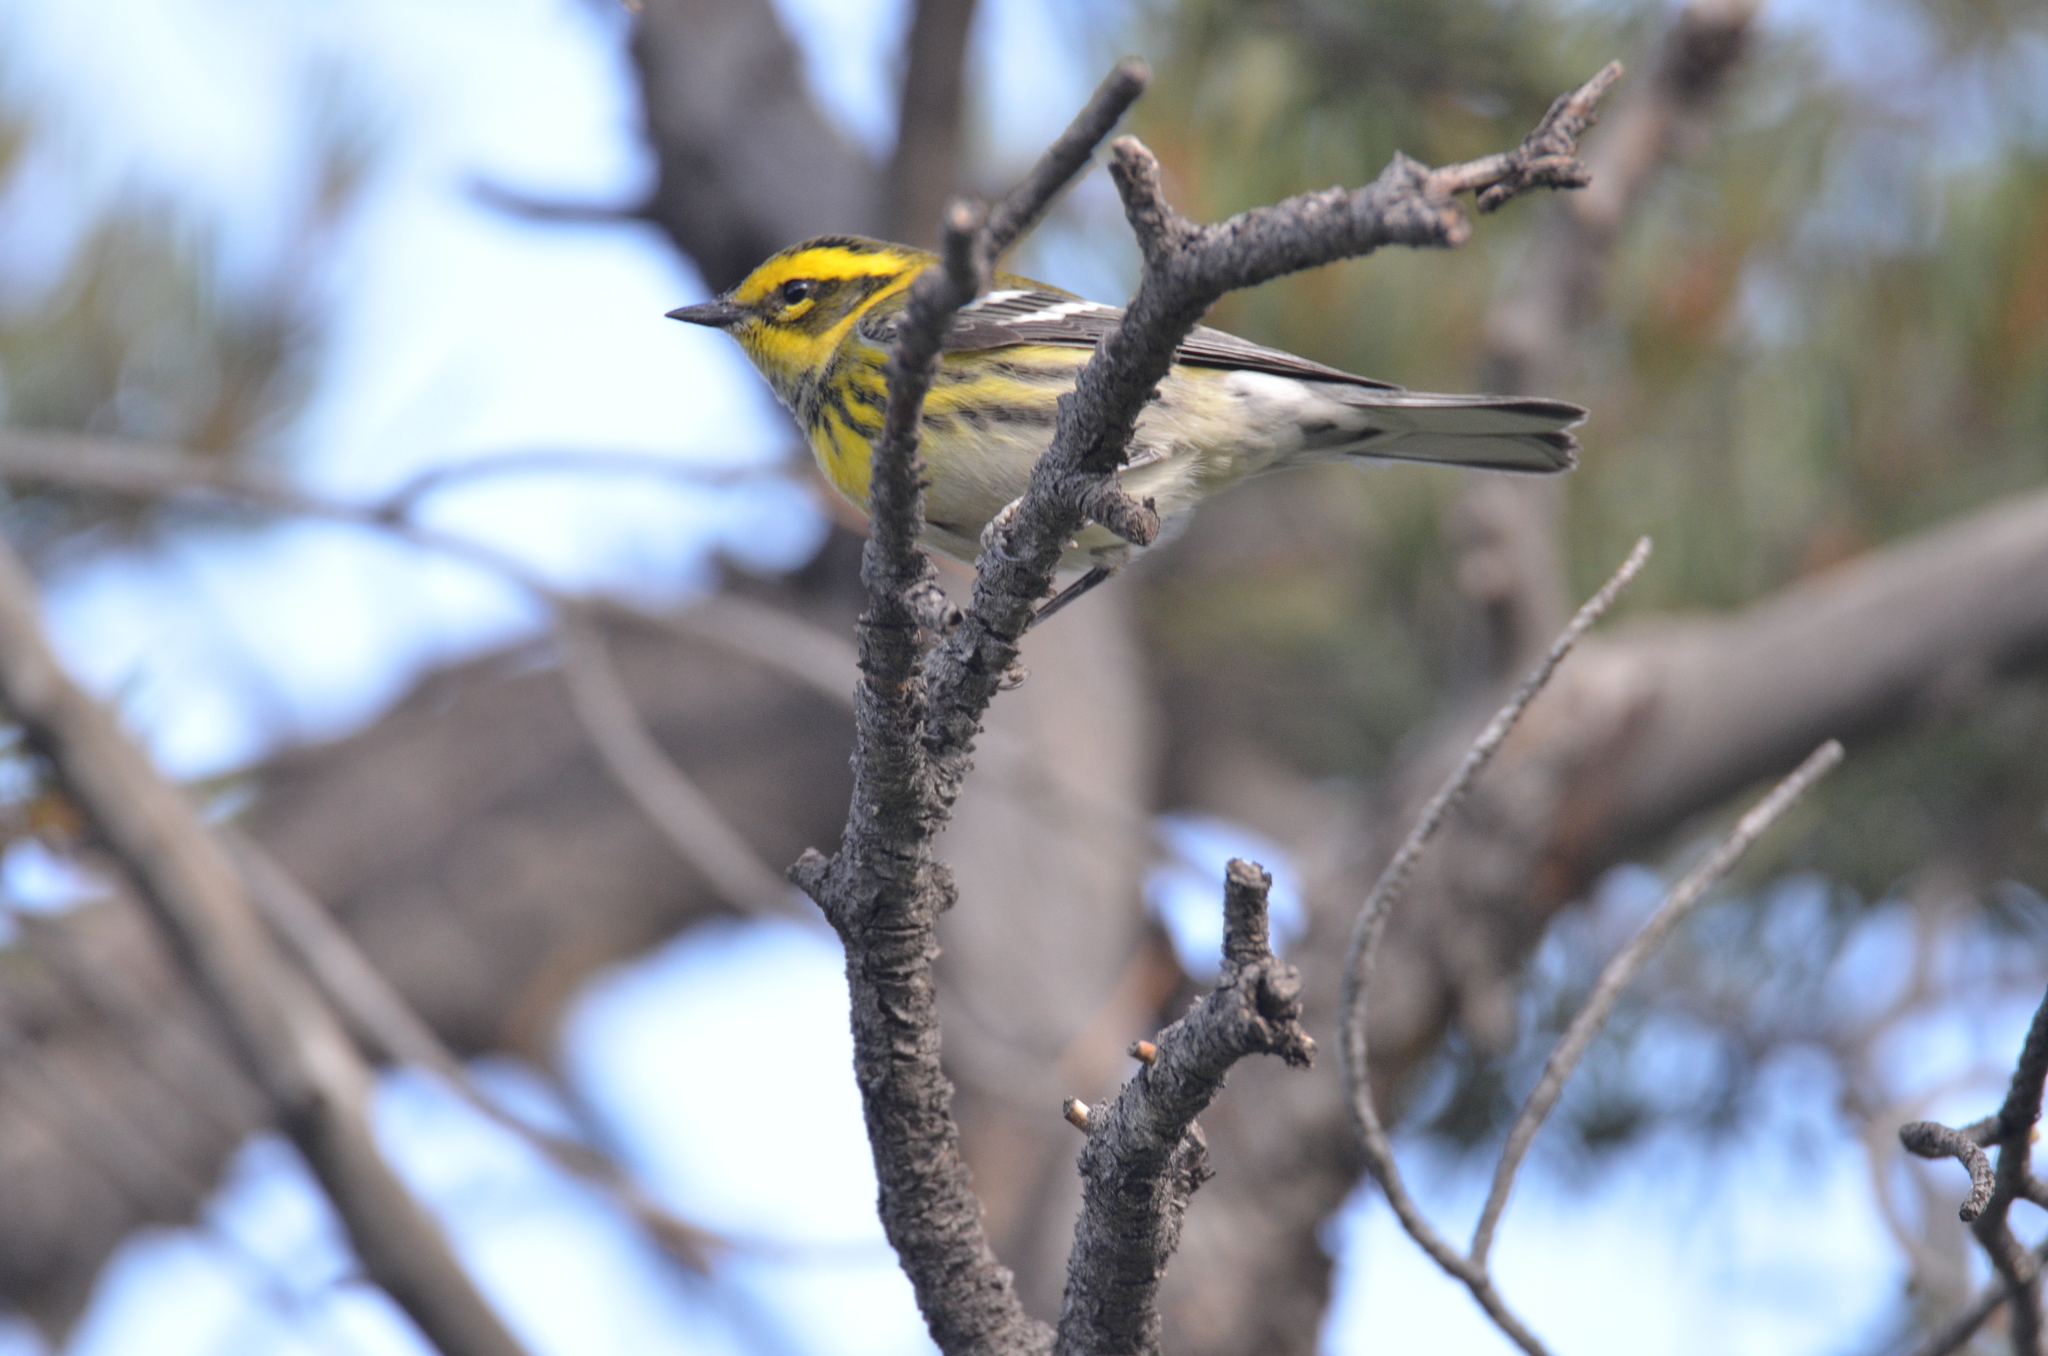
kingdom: Animalia
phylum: Chordata
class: Aves
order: Passeriformes
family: Parulidae
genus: Setophaga
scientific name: Setophaga townsendi
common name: Townsend's warbler
